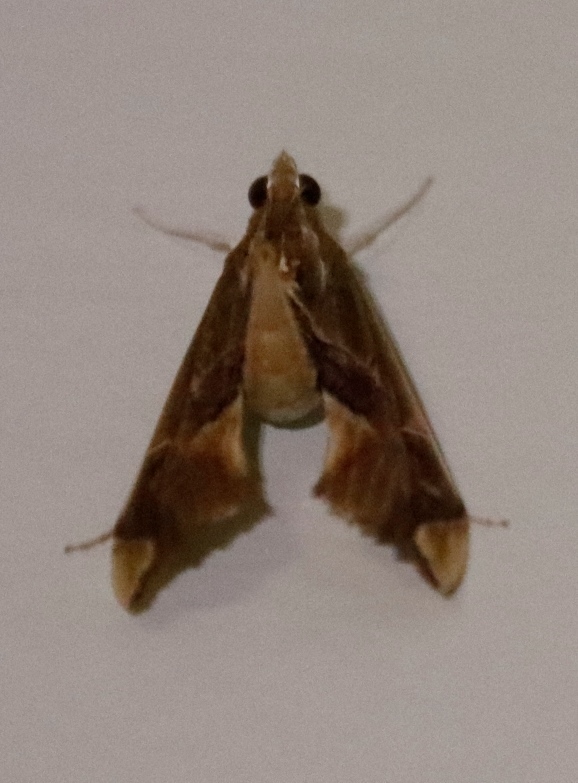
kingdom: Animalia
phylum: Arthropoda
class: Insecta
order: Lepidoptera
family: Crambidae
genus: Agathodes
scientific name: Agathodes musivalis
